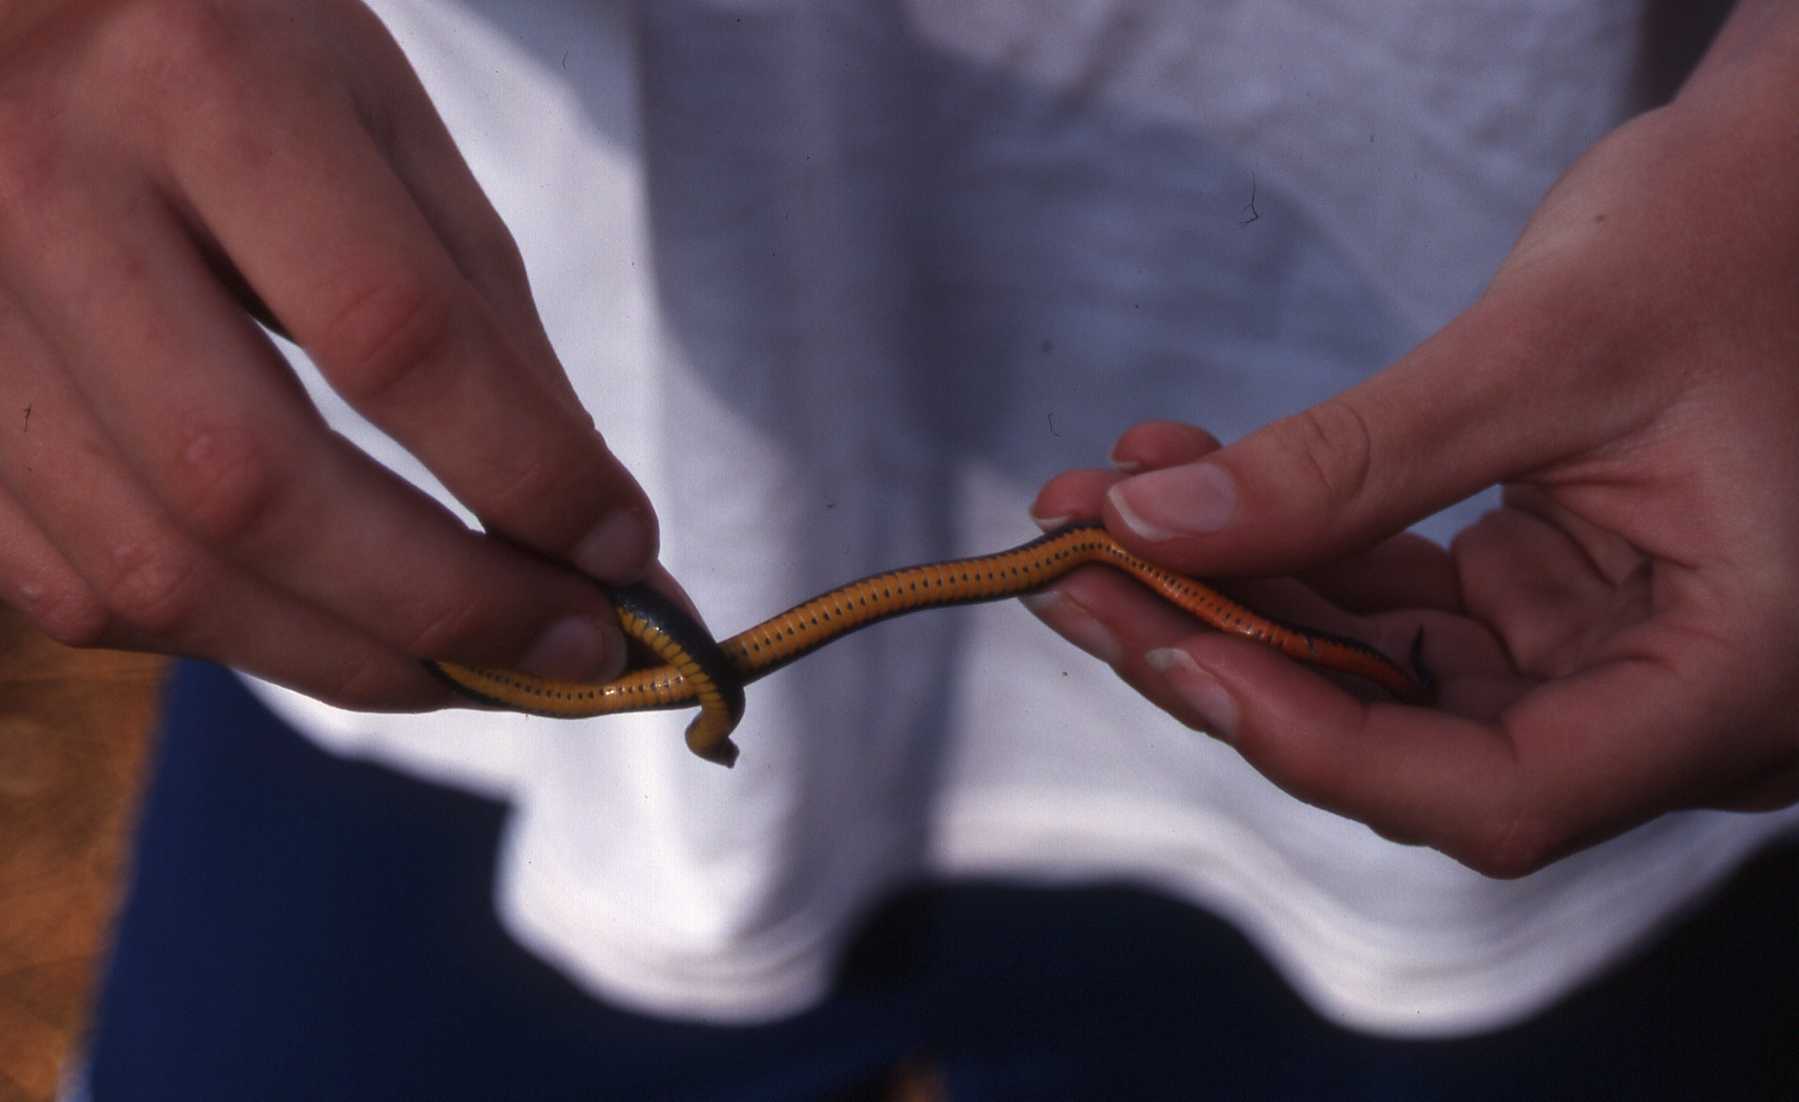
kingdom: Animalia
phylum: Chordata
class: Squamata
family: Colubridae
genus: Diadophis
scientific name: Diadophis punctatus
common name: Ringneck snake
